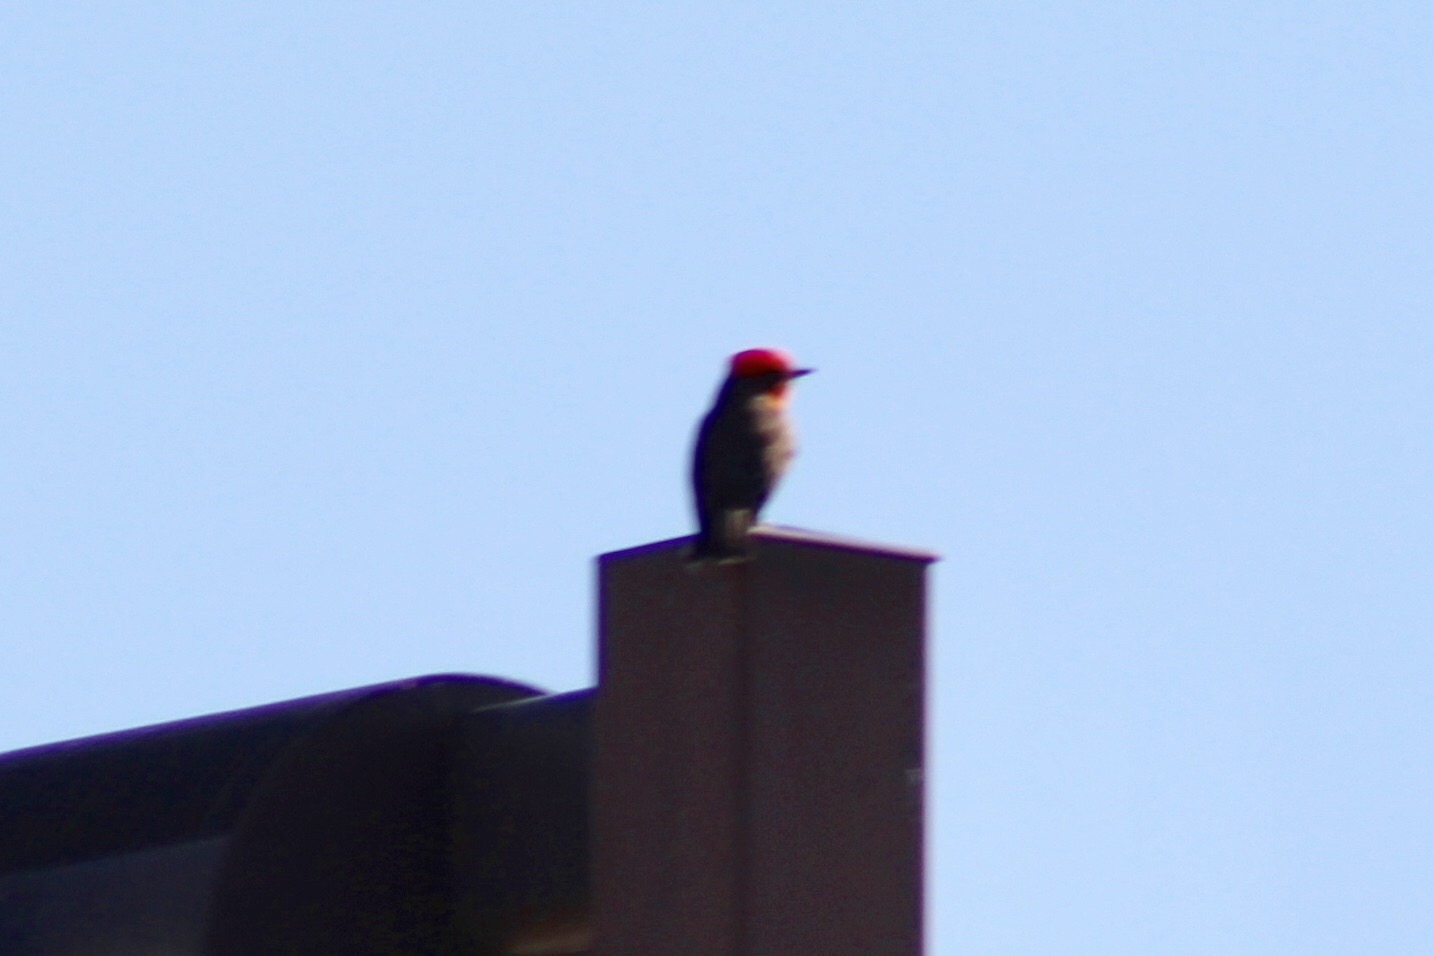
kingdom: Animalia
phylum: Chordata
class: Aves
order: Passeriformes
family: Tyrannidae
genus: Pyrocephalus
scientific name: Pyrocephalus rubinus
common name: Vermilion flycatcher
